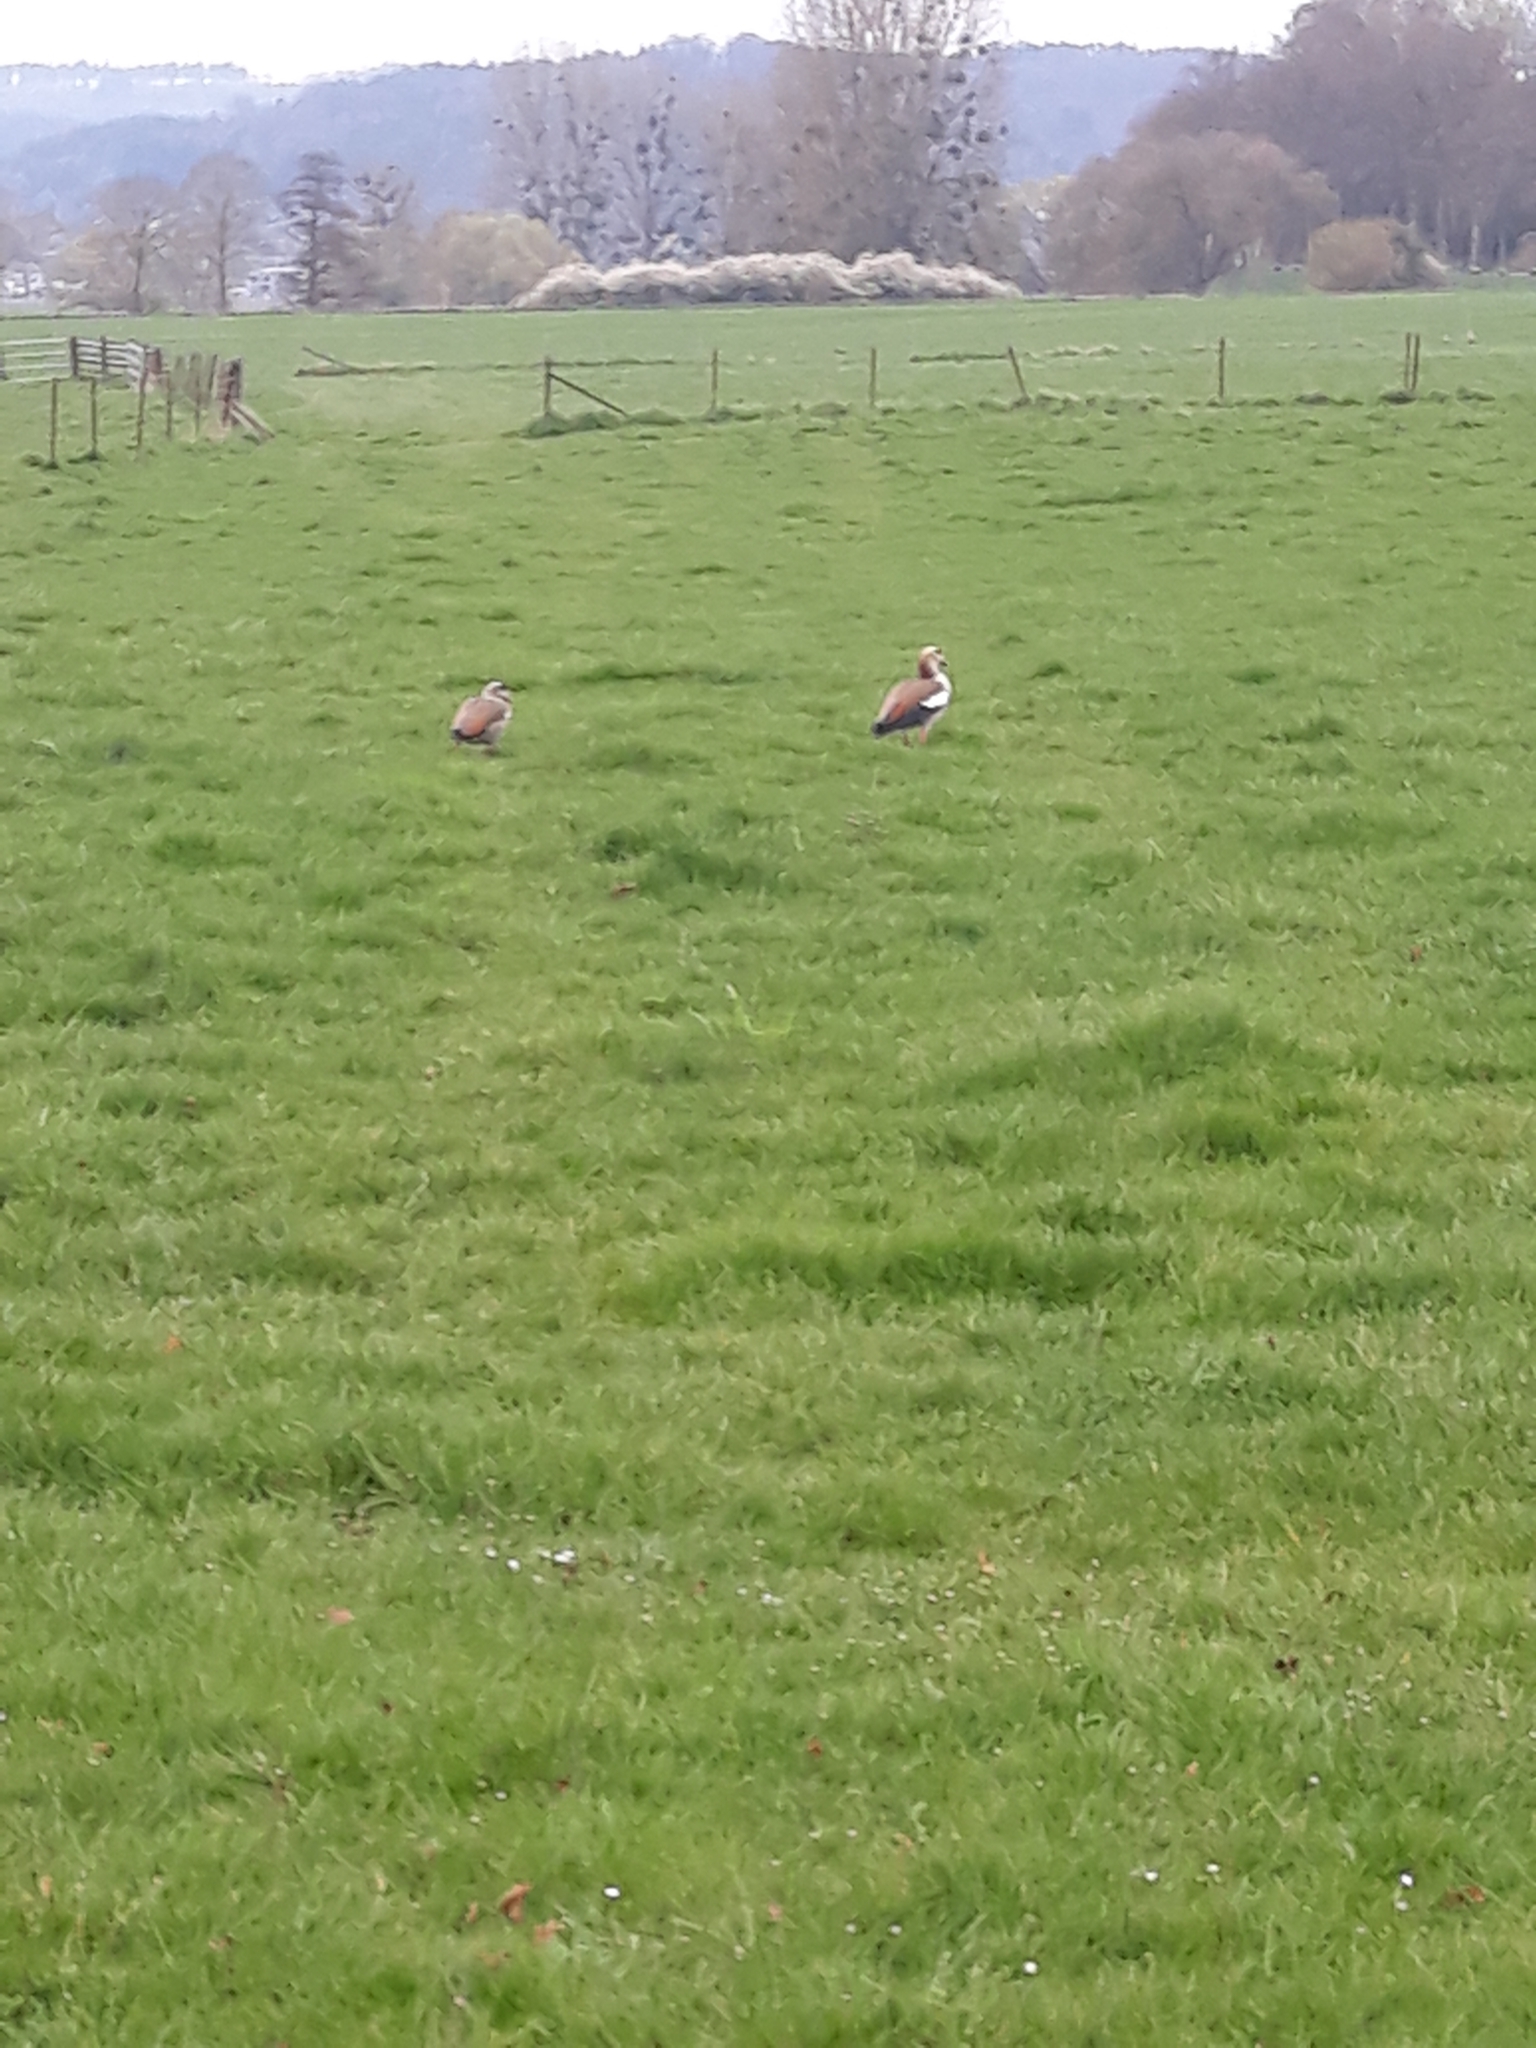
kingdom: Animalia
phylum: Chordata
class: Aves
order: Anseriformes
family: Anatidae
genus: Alopochen
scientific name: Alopochen aegyptiaca
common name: Egyptian goose
